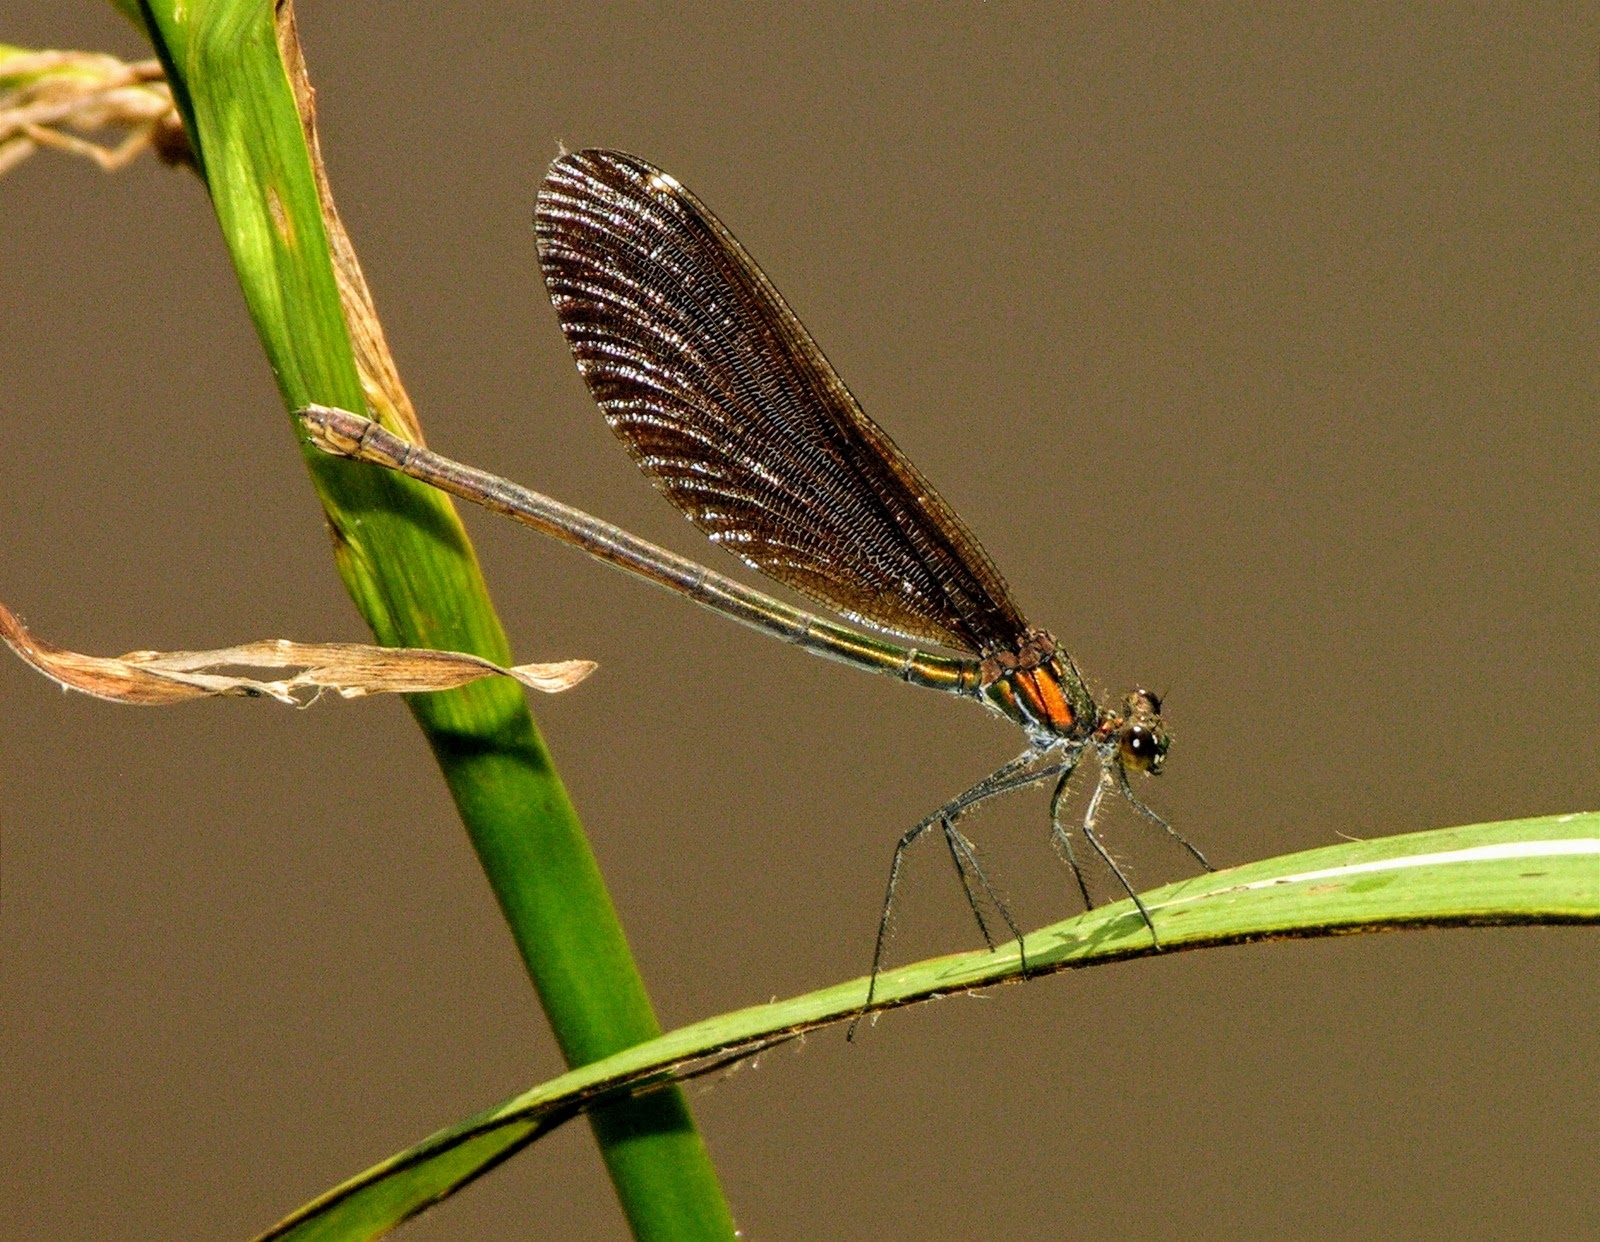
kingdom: Animalia
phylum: Arthropoda
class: Insecta
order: Odonata
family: Calopterygidae
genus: Calopteryx
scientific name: Calopteryx virgo
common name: Beautiful demoiselle
